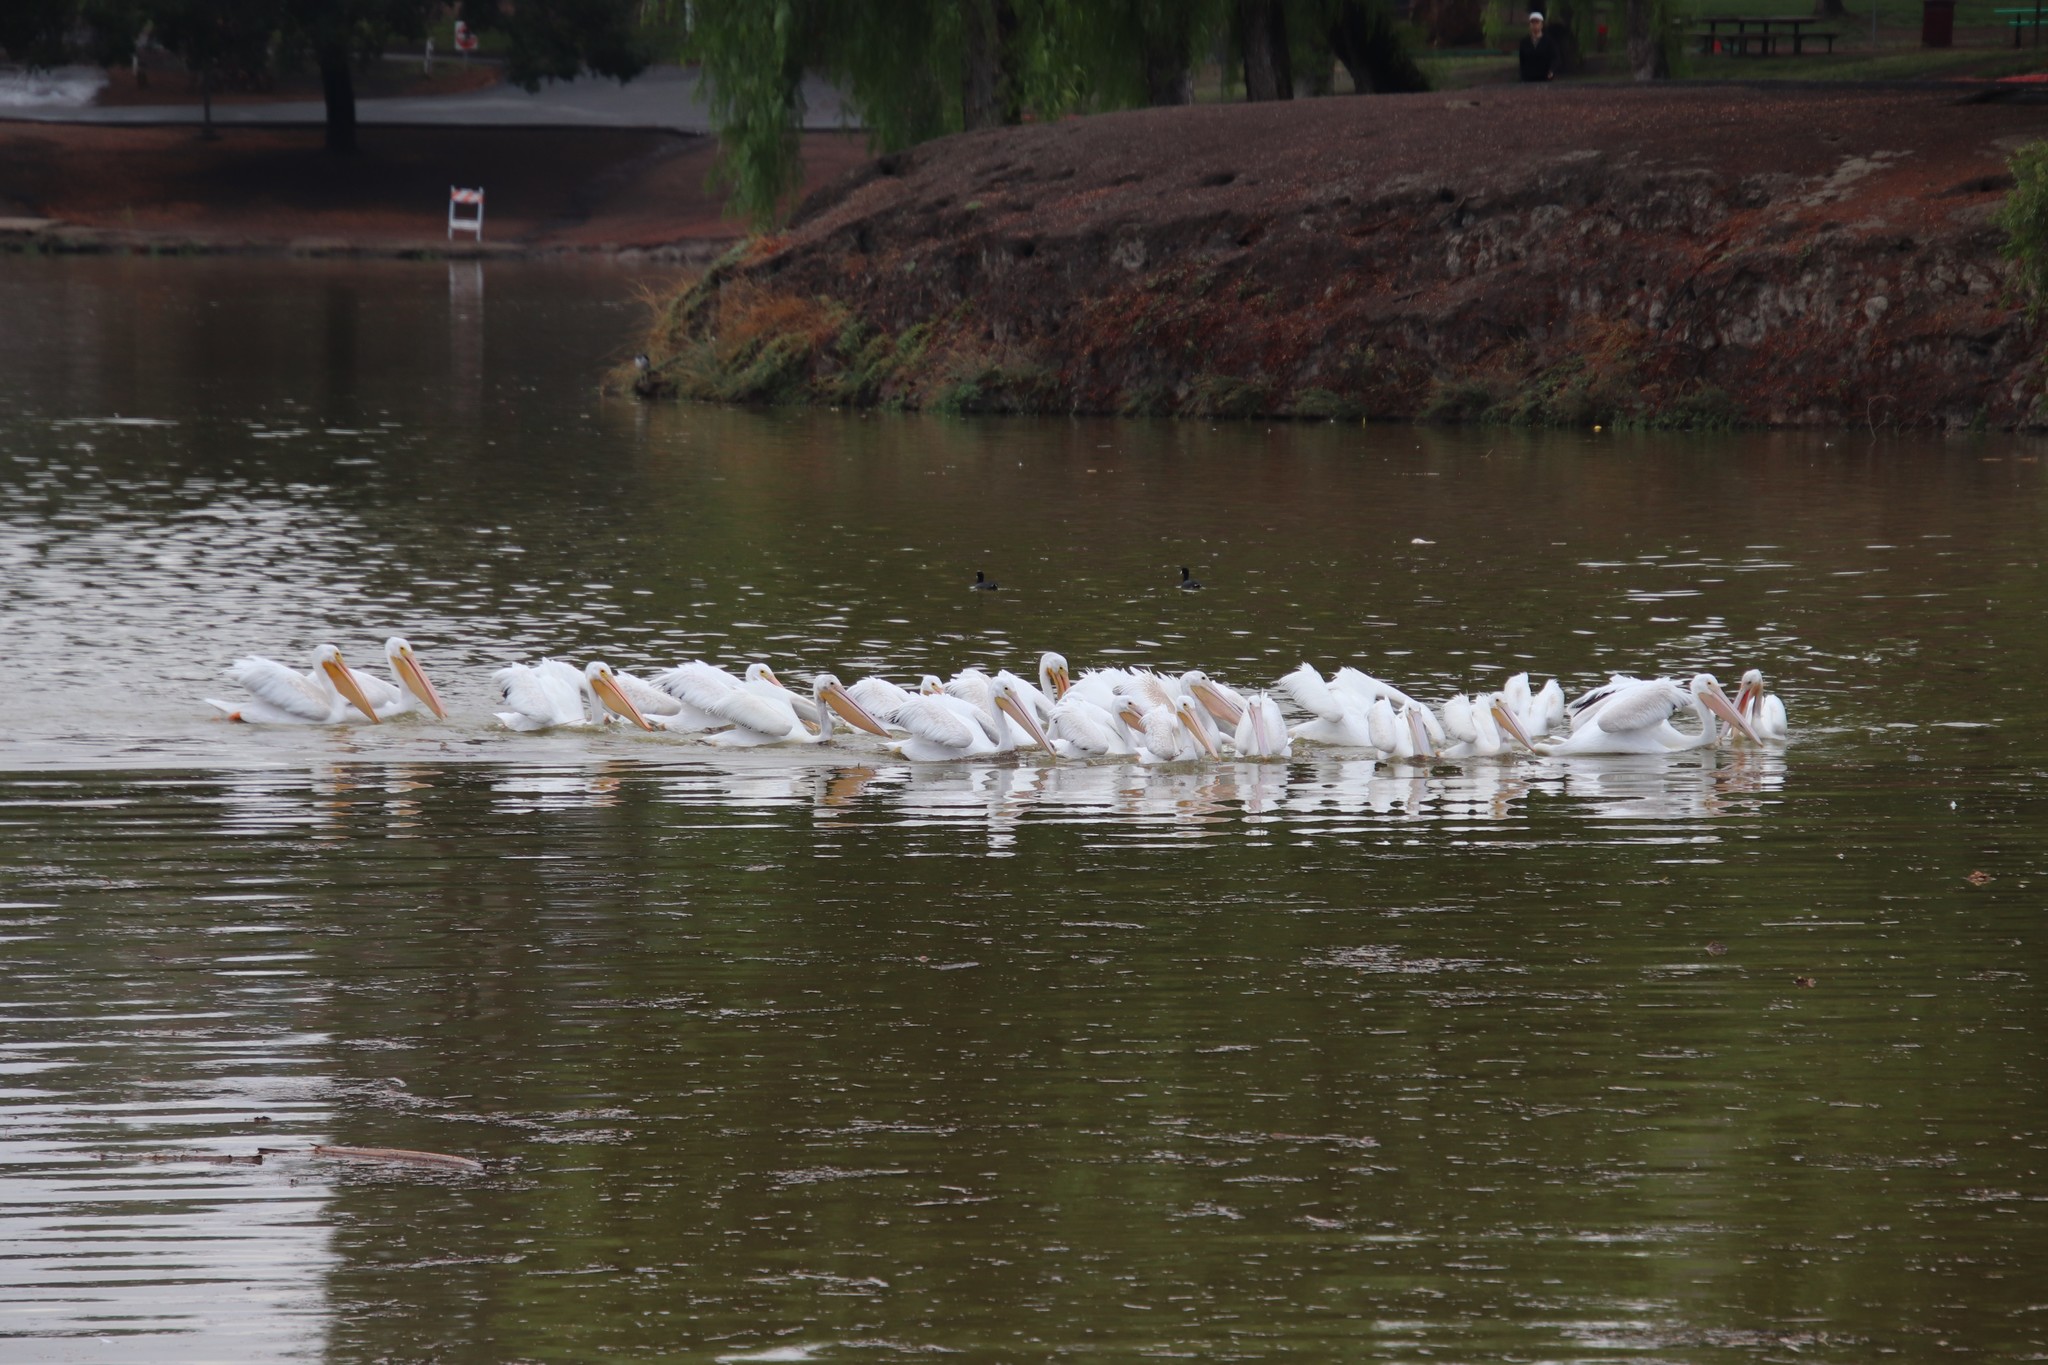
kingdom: Animalia
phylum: Chordata
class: Aves
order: Pelecaniformes
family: Pelecanidae
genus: Pelecanus
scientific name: Pelecanus erythrorhynchos
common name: American white pelican
